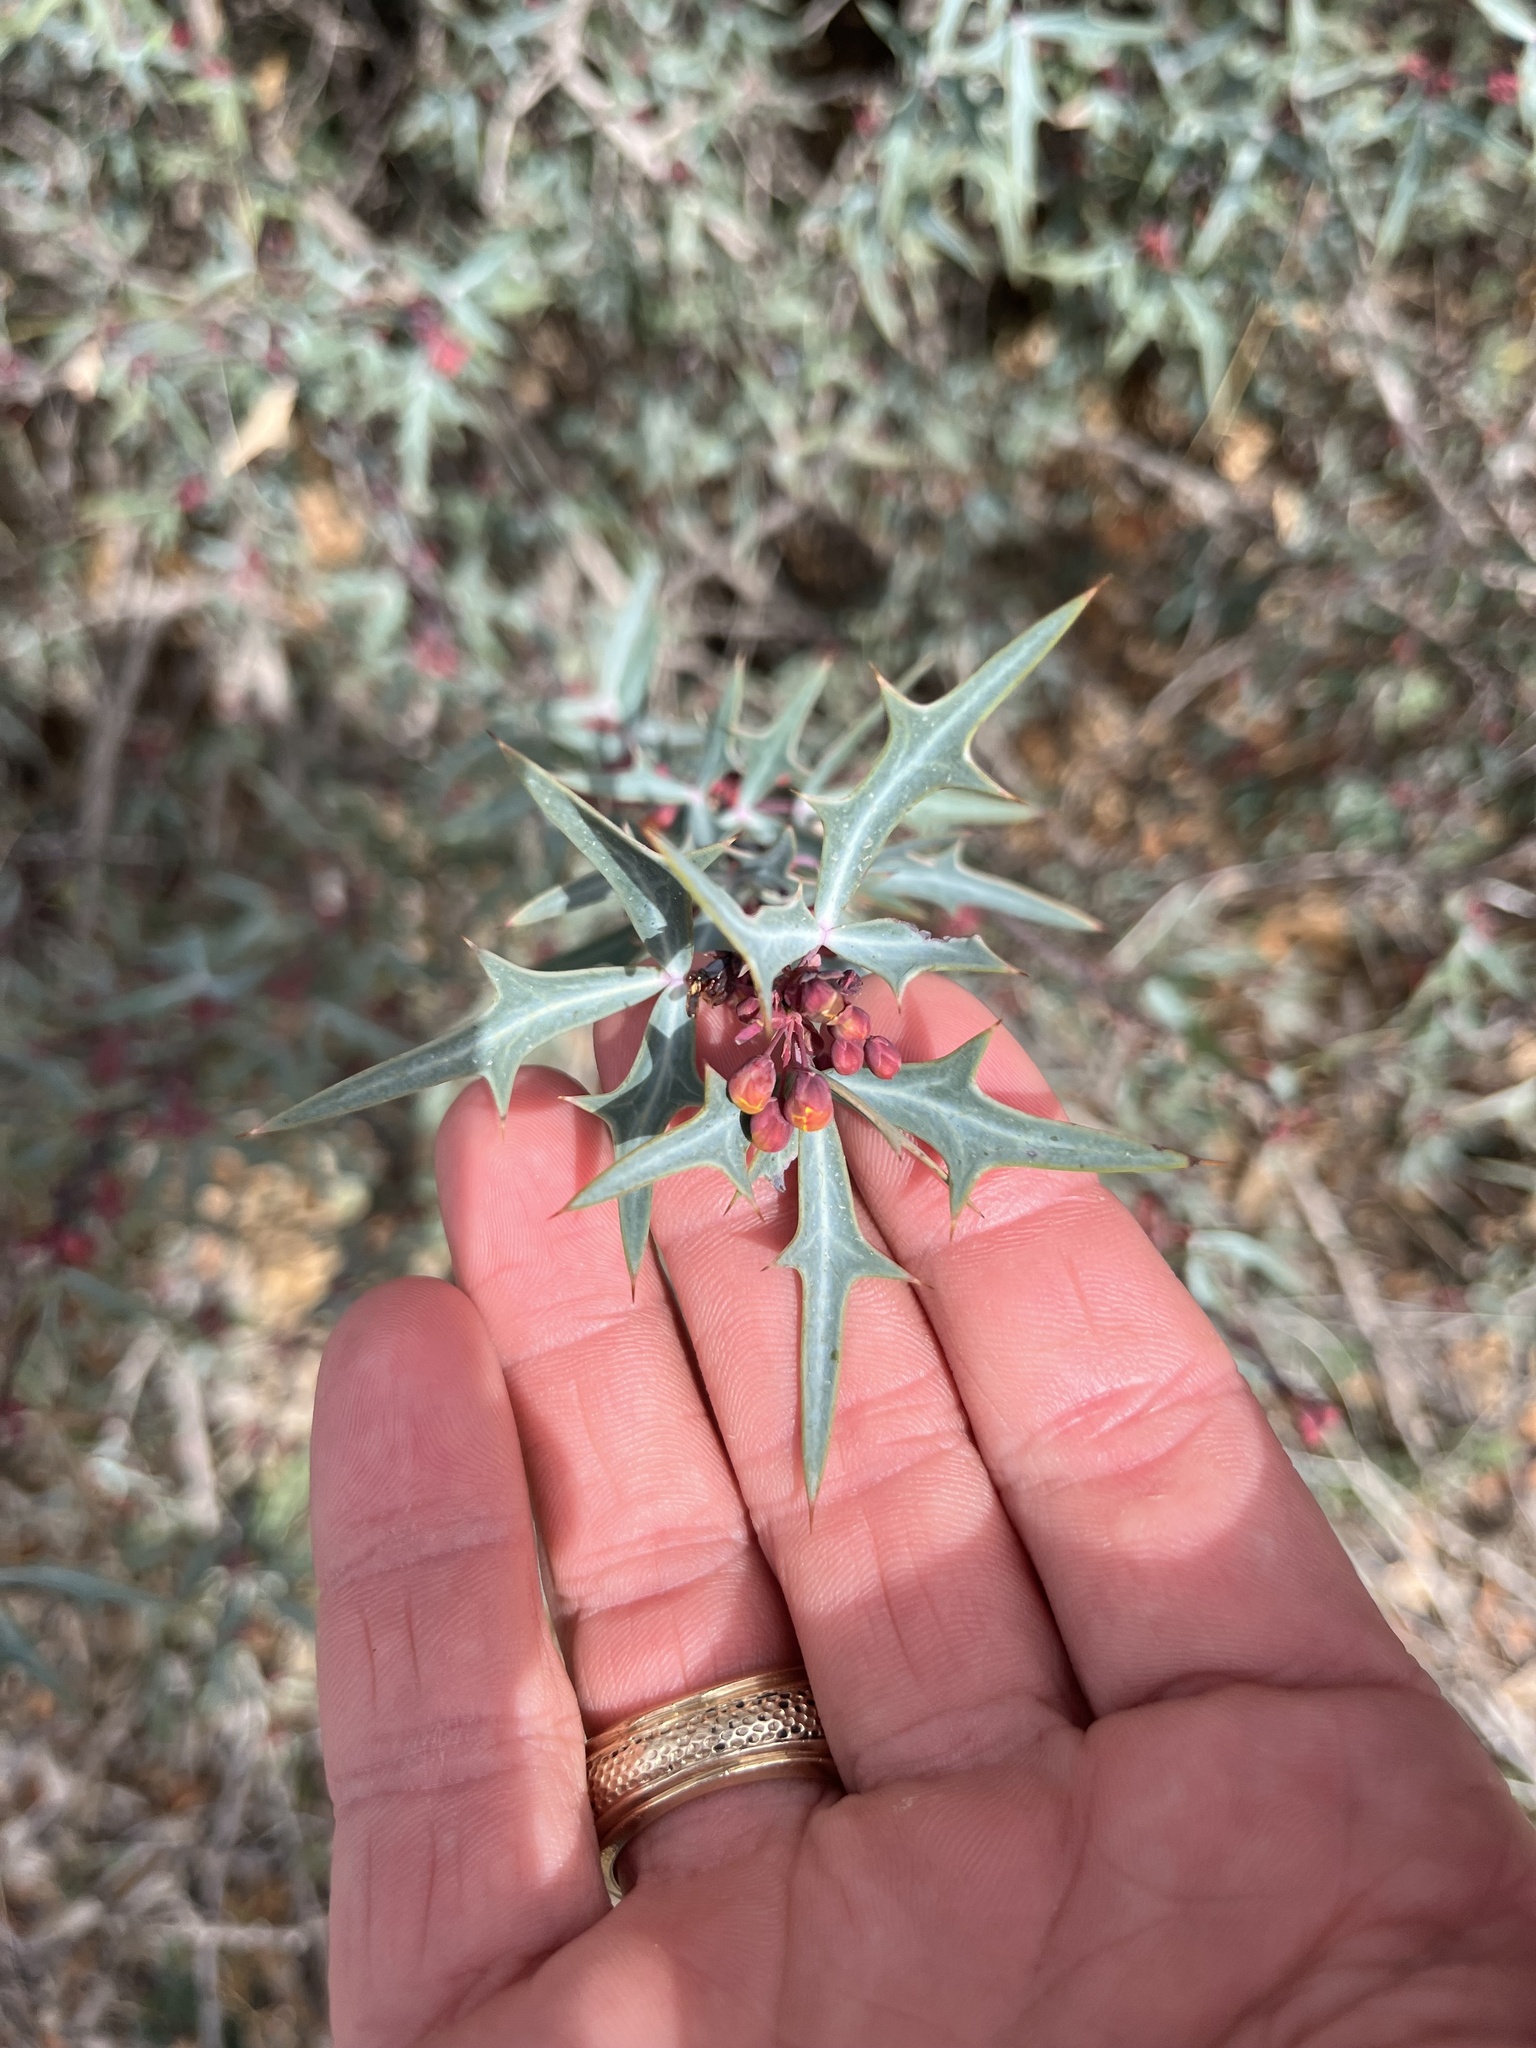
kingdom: Plantae
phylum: Tracheophyta
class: Magnoliopsida
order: Ranunculales
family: Berberidaceae
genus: Alloberberis
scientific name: Alloberberis trifoliolata
